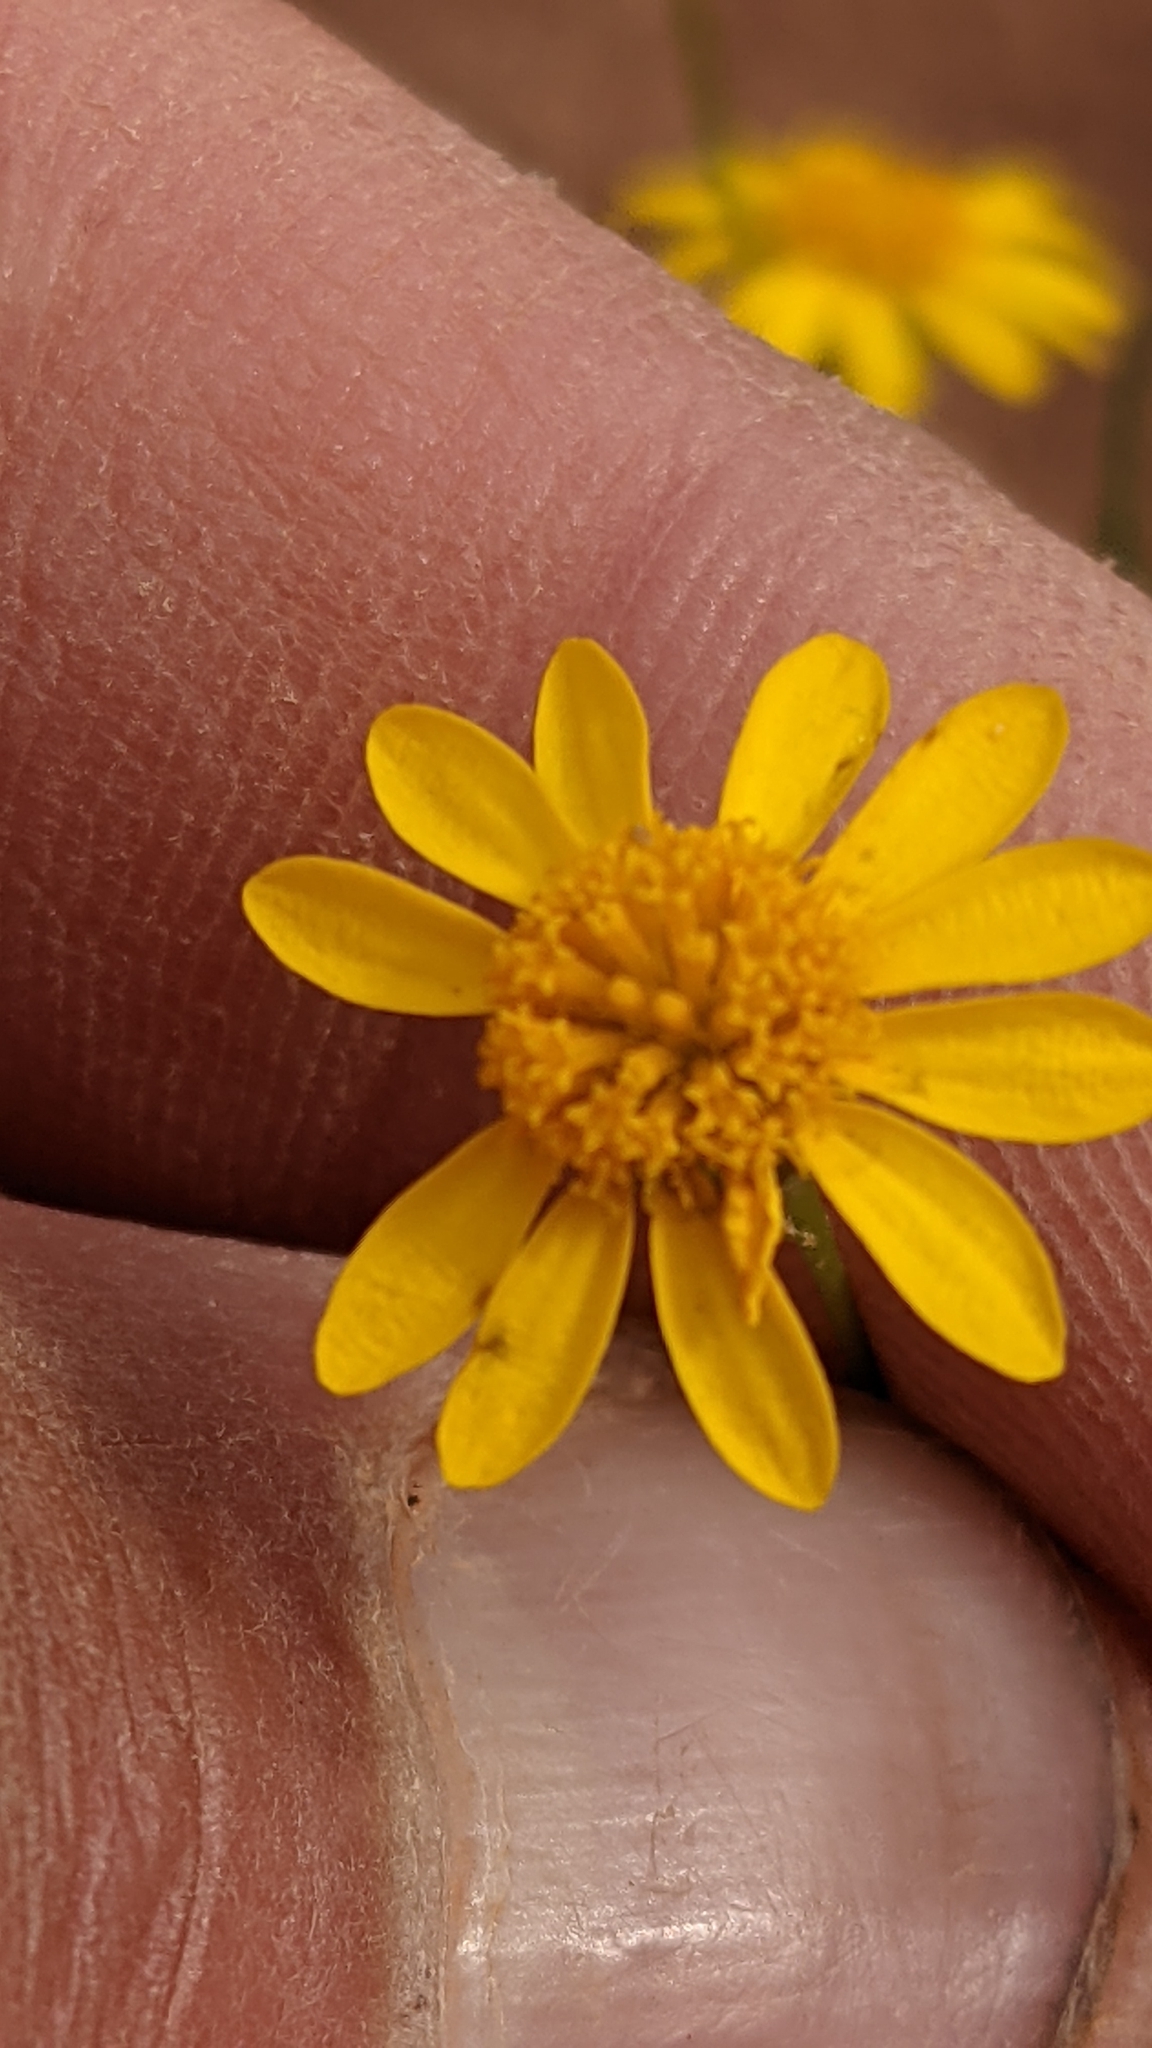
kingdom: Plantae
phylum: Tracheophyta
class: Magnoliopsida
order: Asterales
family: Asteraceae
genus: Thymophylla
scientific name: Thymophylla pentachaeta
